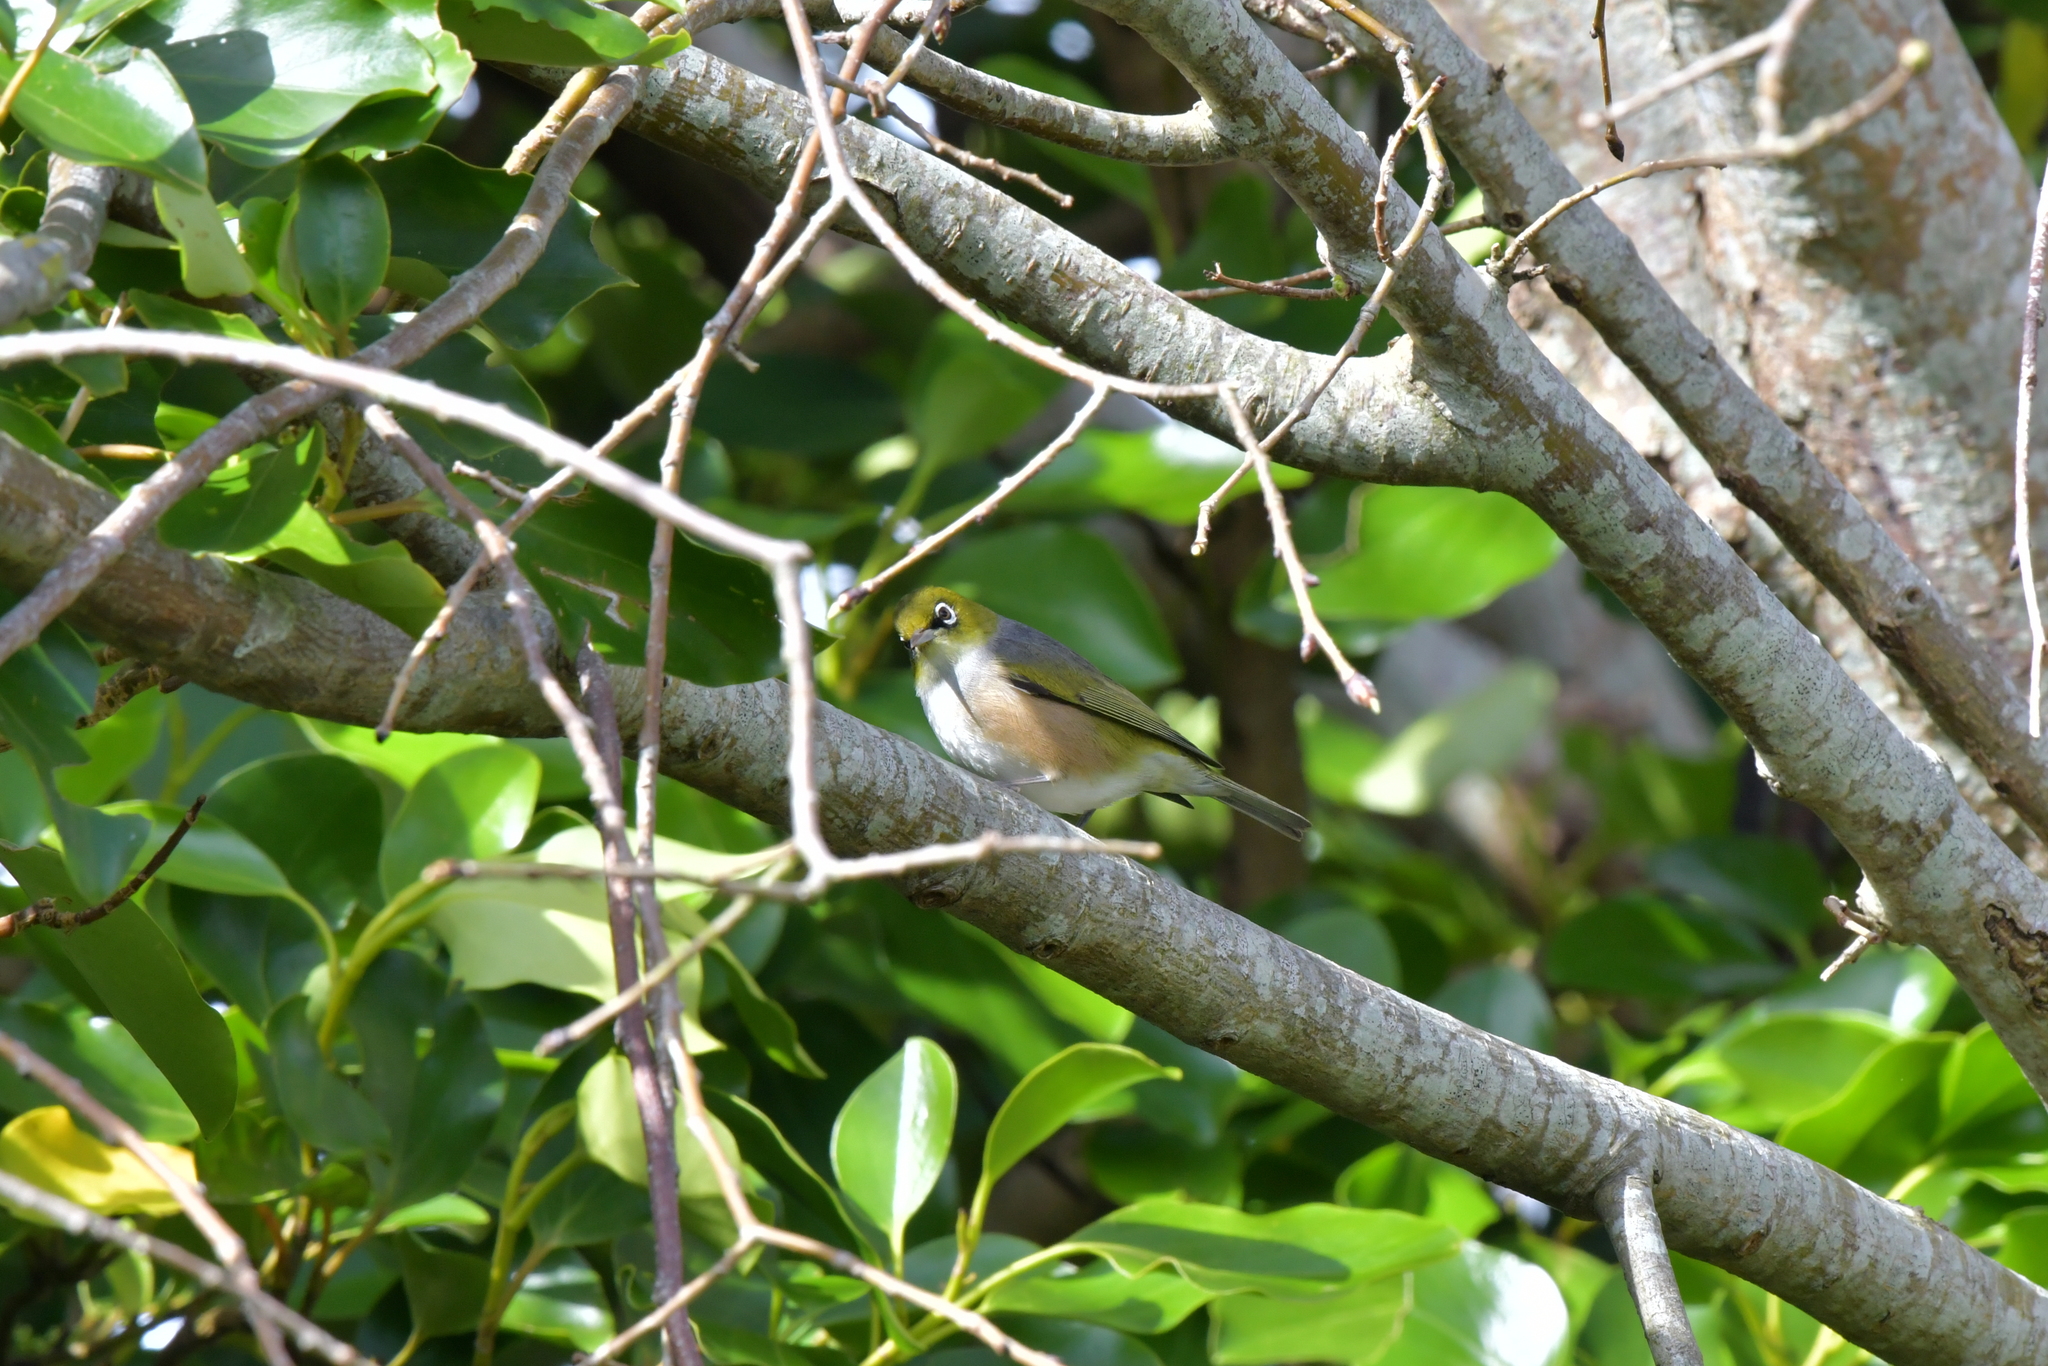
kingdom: Animalia
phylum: Chordata
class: Aves
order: Passeriformes
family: Zosteropidae
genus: Zosterops
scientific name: Zosterops lateralis
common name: Silvereye
